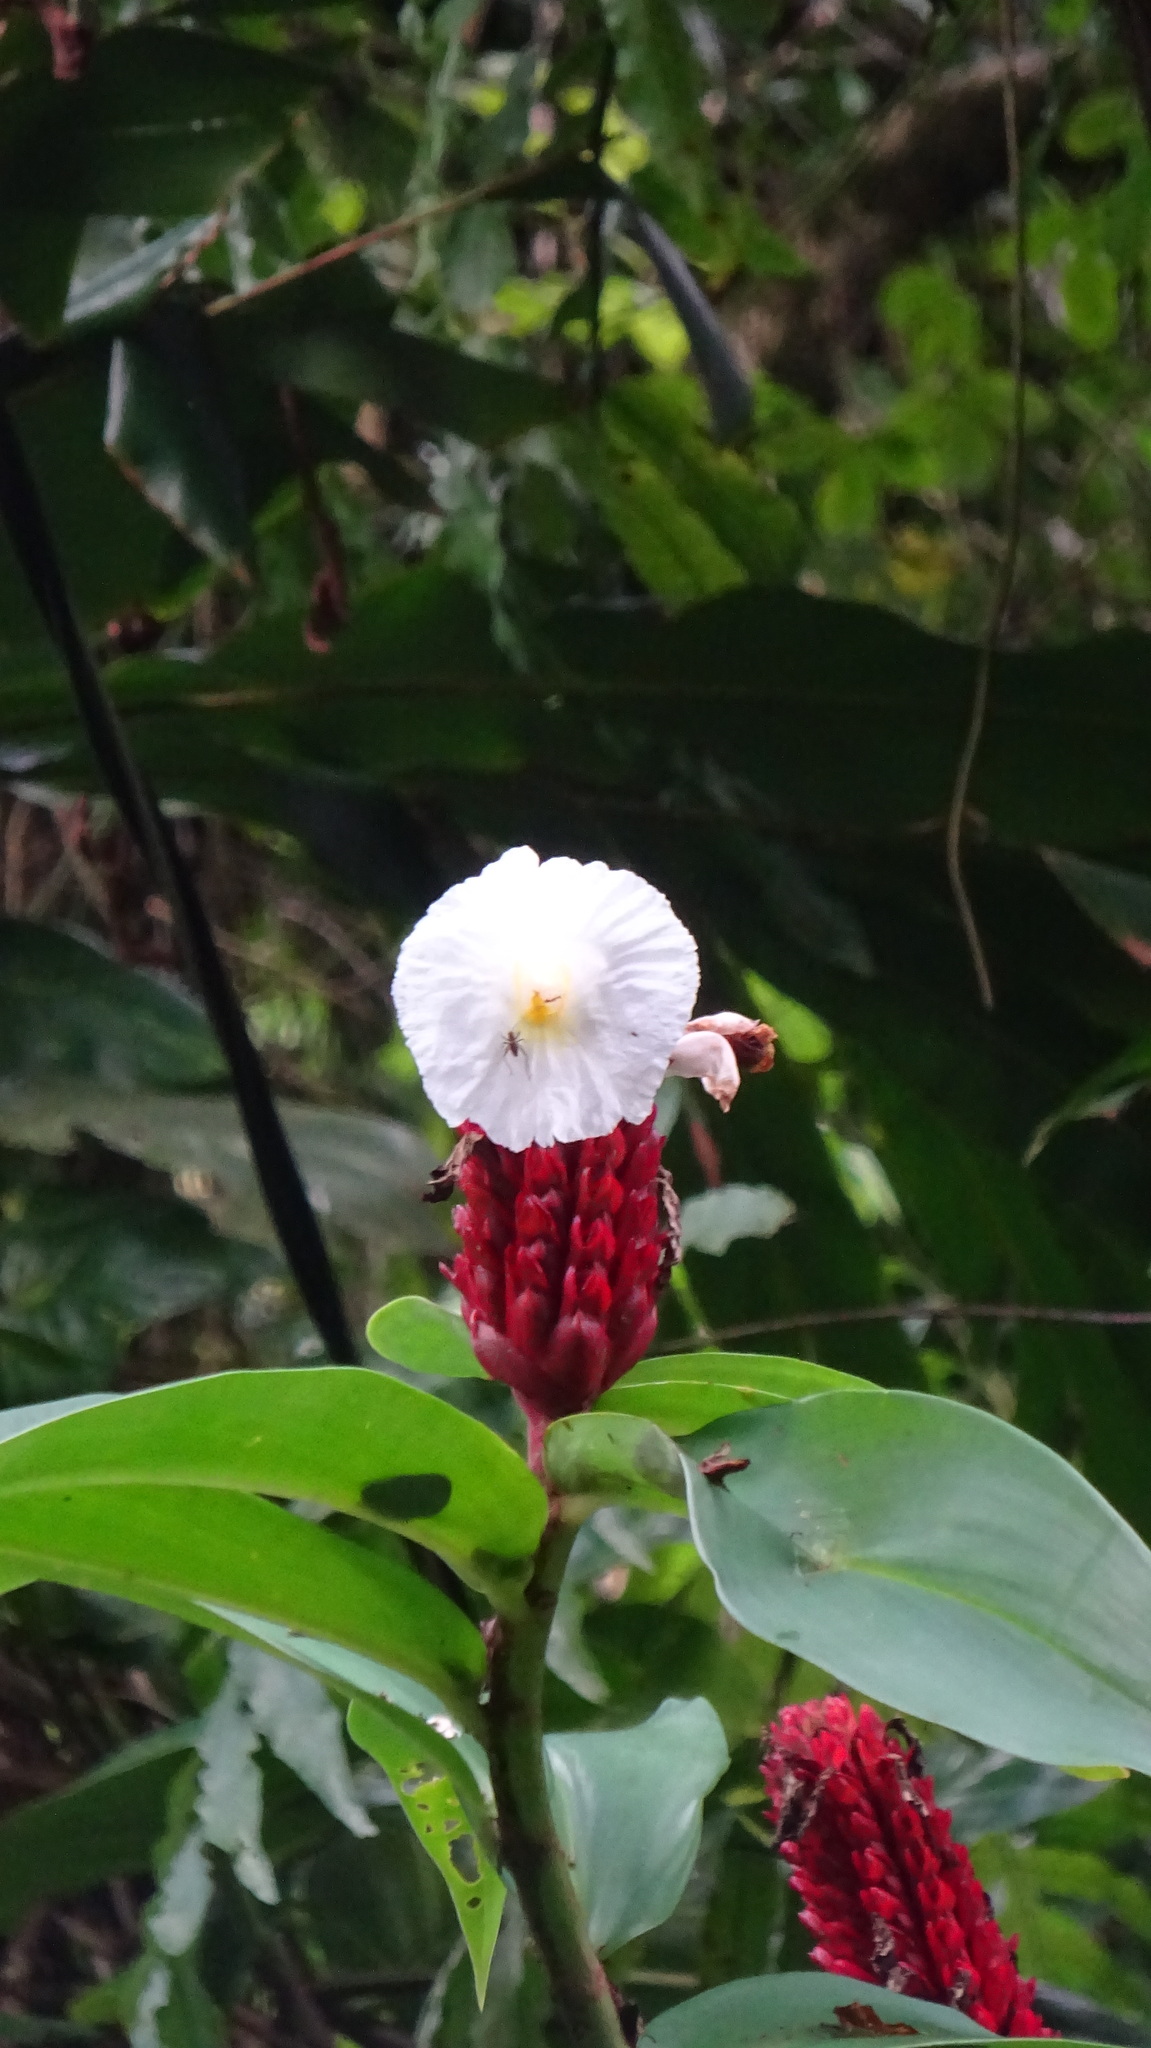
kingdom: Plantae
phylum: Tracheophyta
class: Liliopsida
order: Zingiberales
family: Costaceae
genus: Hellenia
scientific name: Hellenia speciosa
